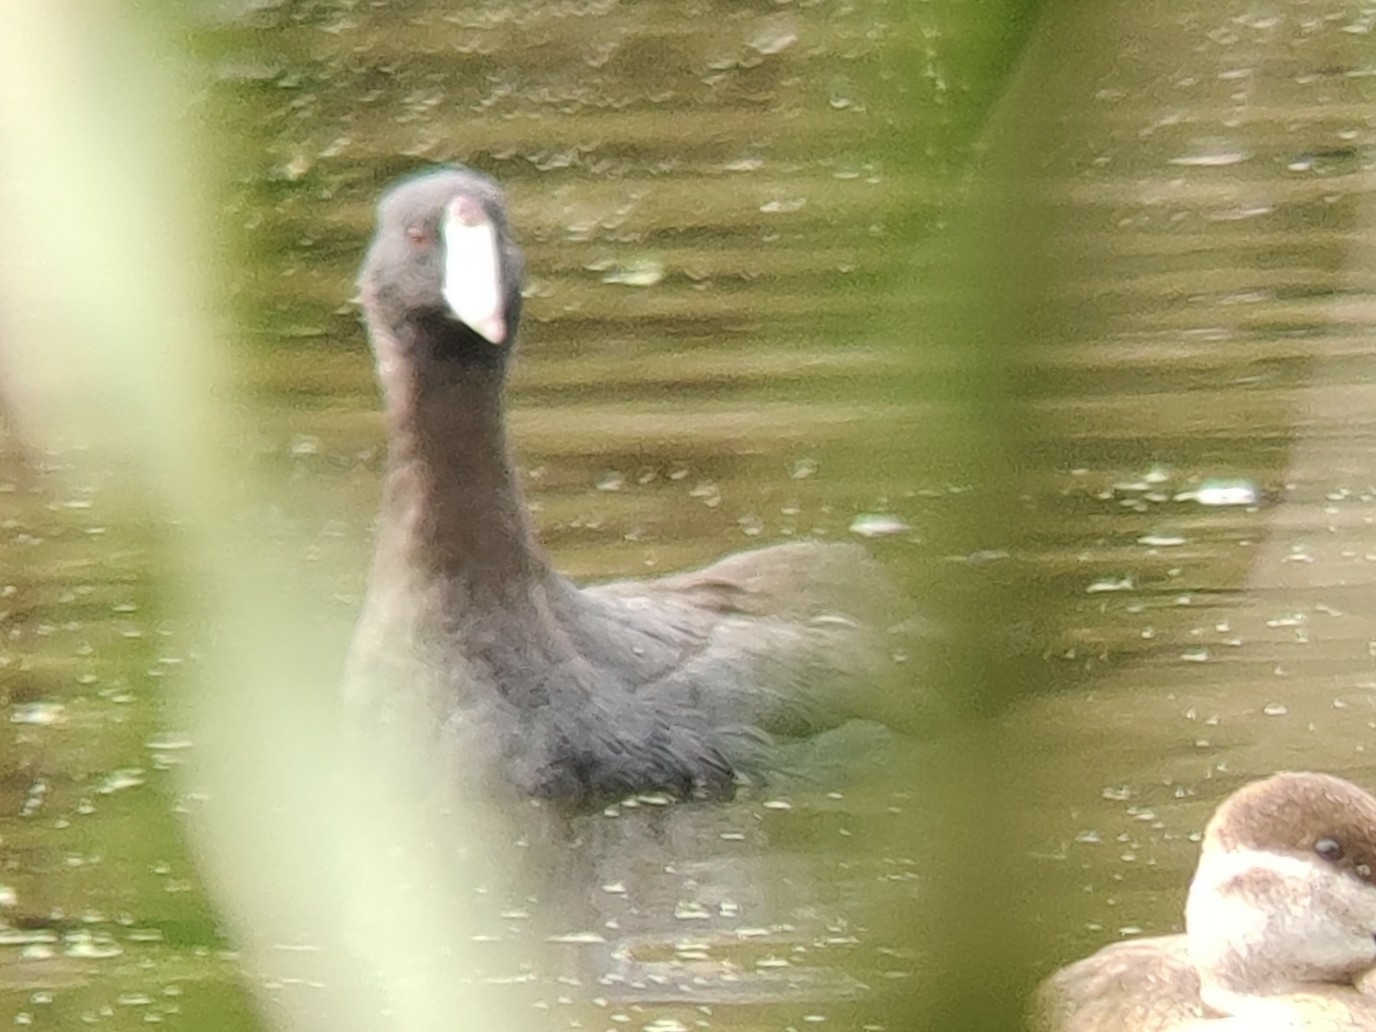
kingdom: Animalia
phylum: Chordata
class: Aves
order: Gruiformes
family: Rallidae
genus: Fulica
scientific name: Fulica americana
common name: American coot
